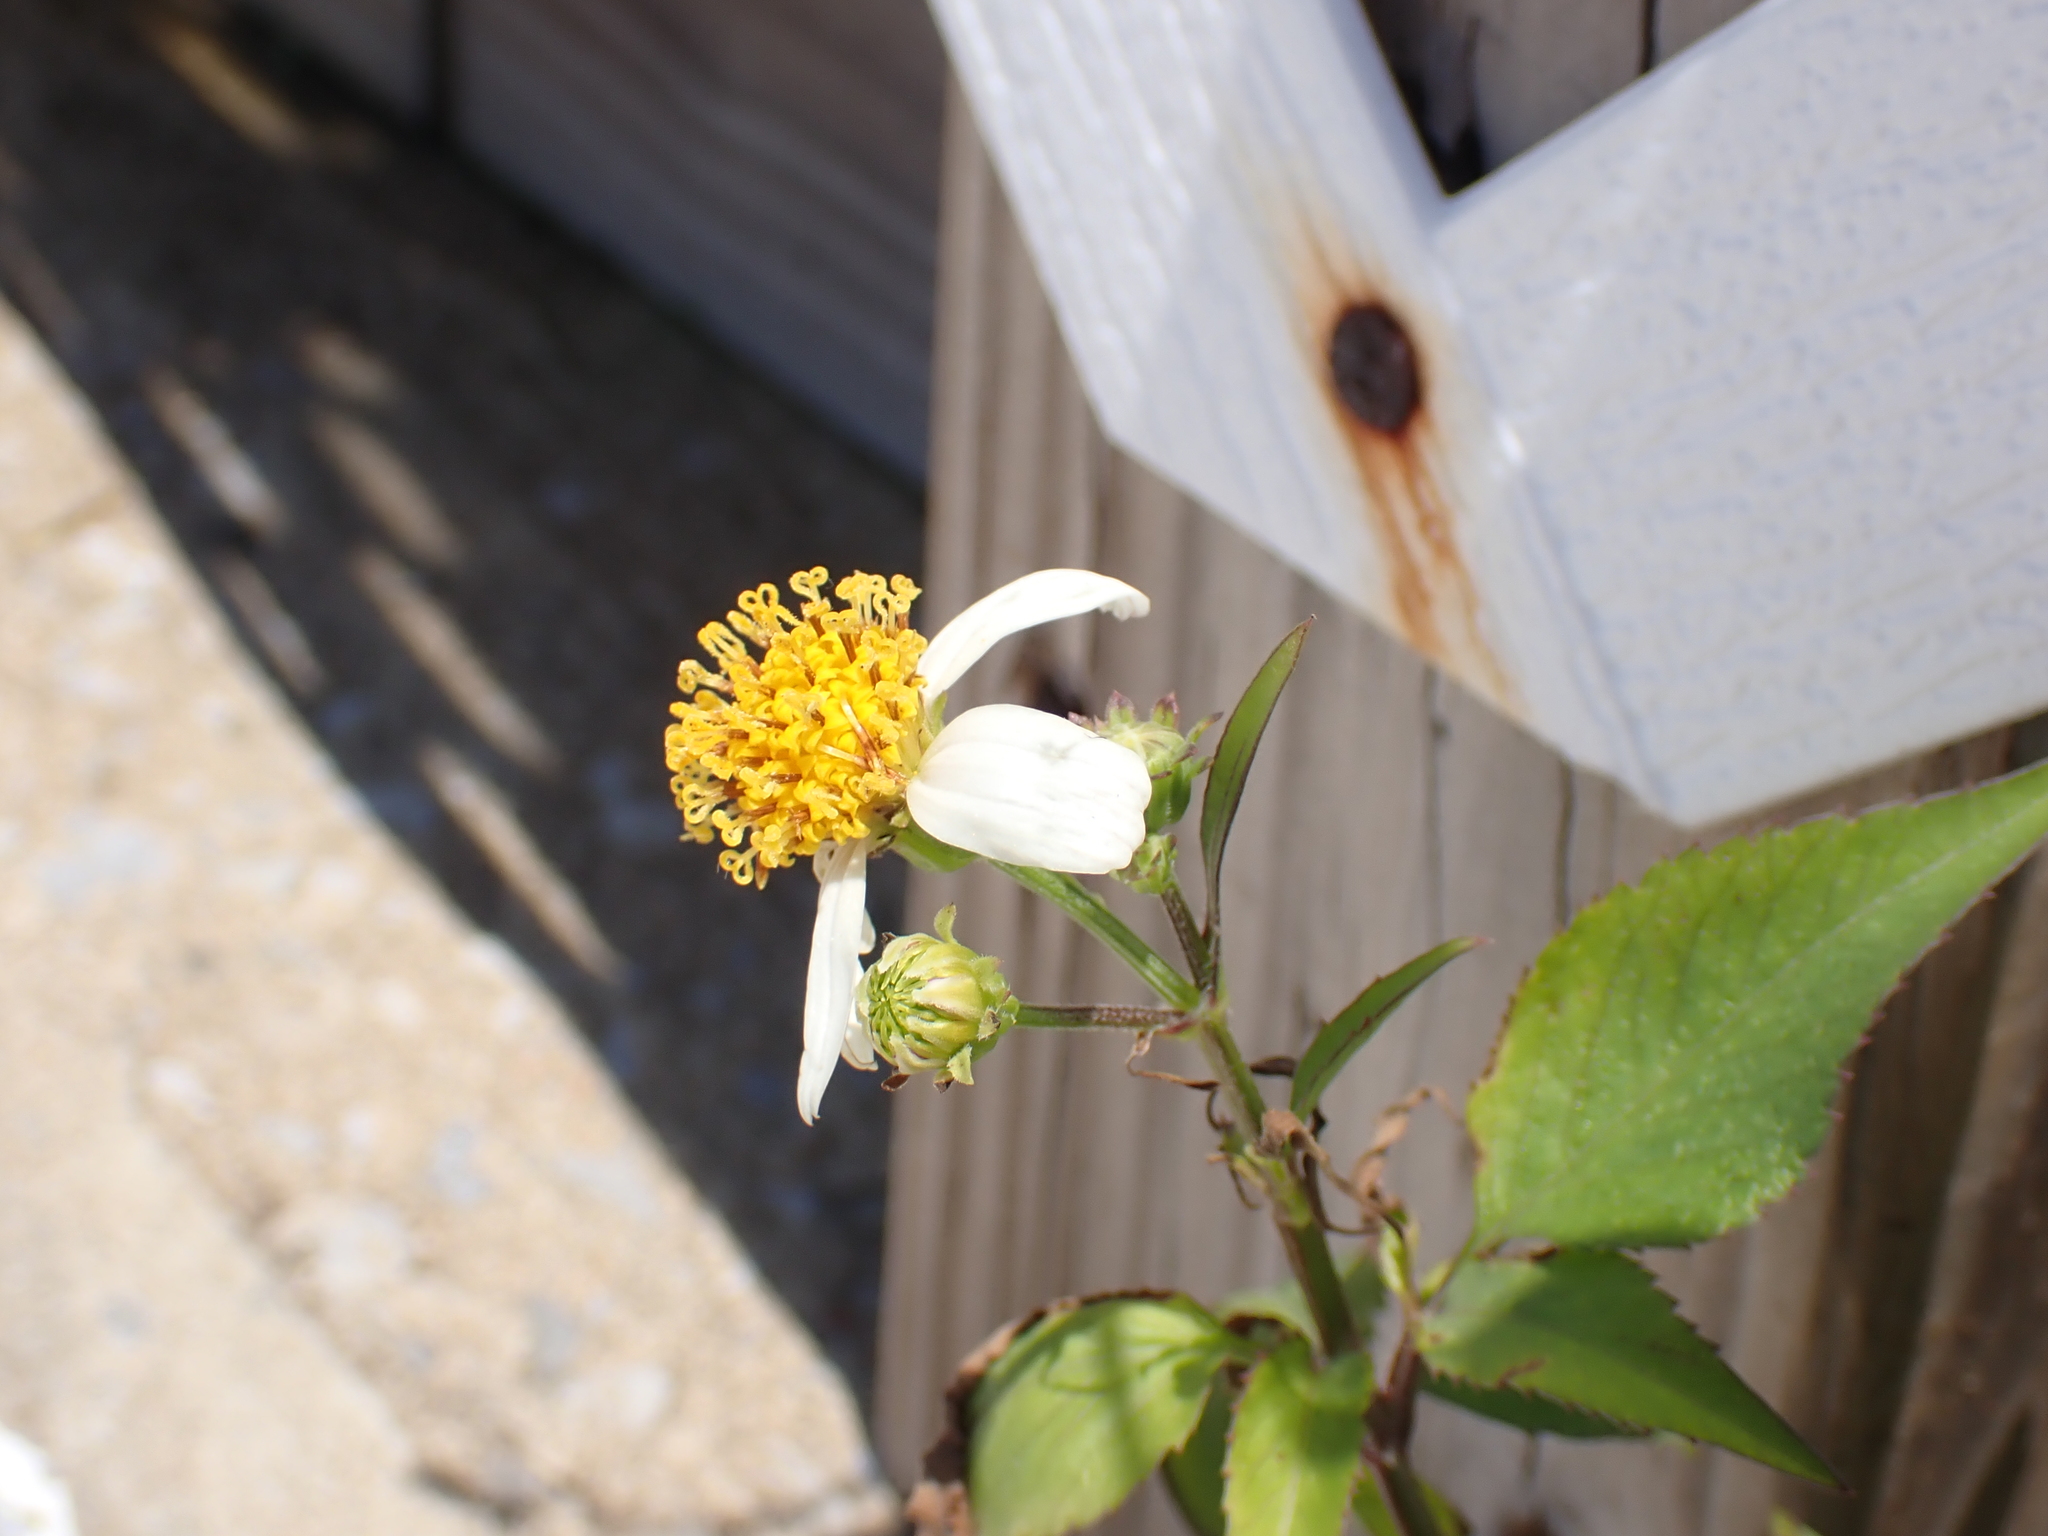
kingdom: Plantae
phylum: Tracheophyta
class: Magnoliopsida
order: Asterales
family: Asteraceae
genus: Bidens
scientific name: Bidens alba
